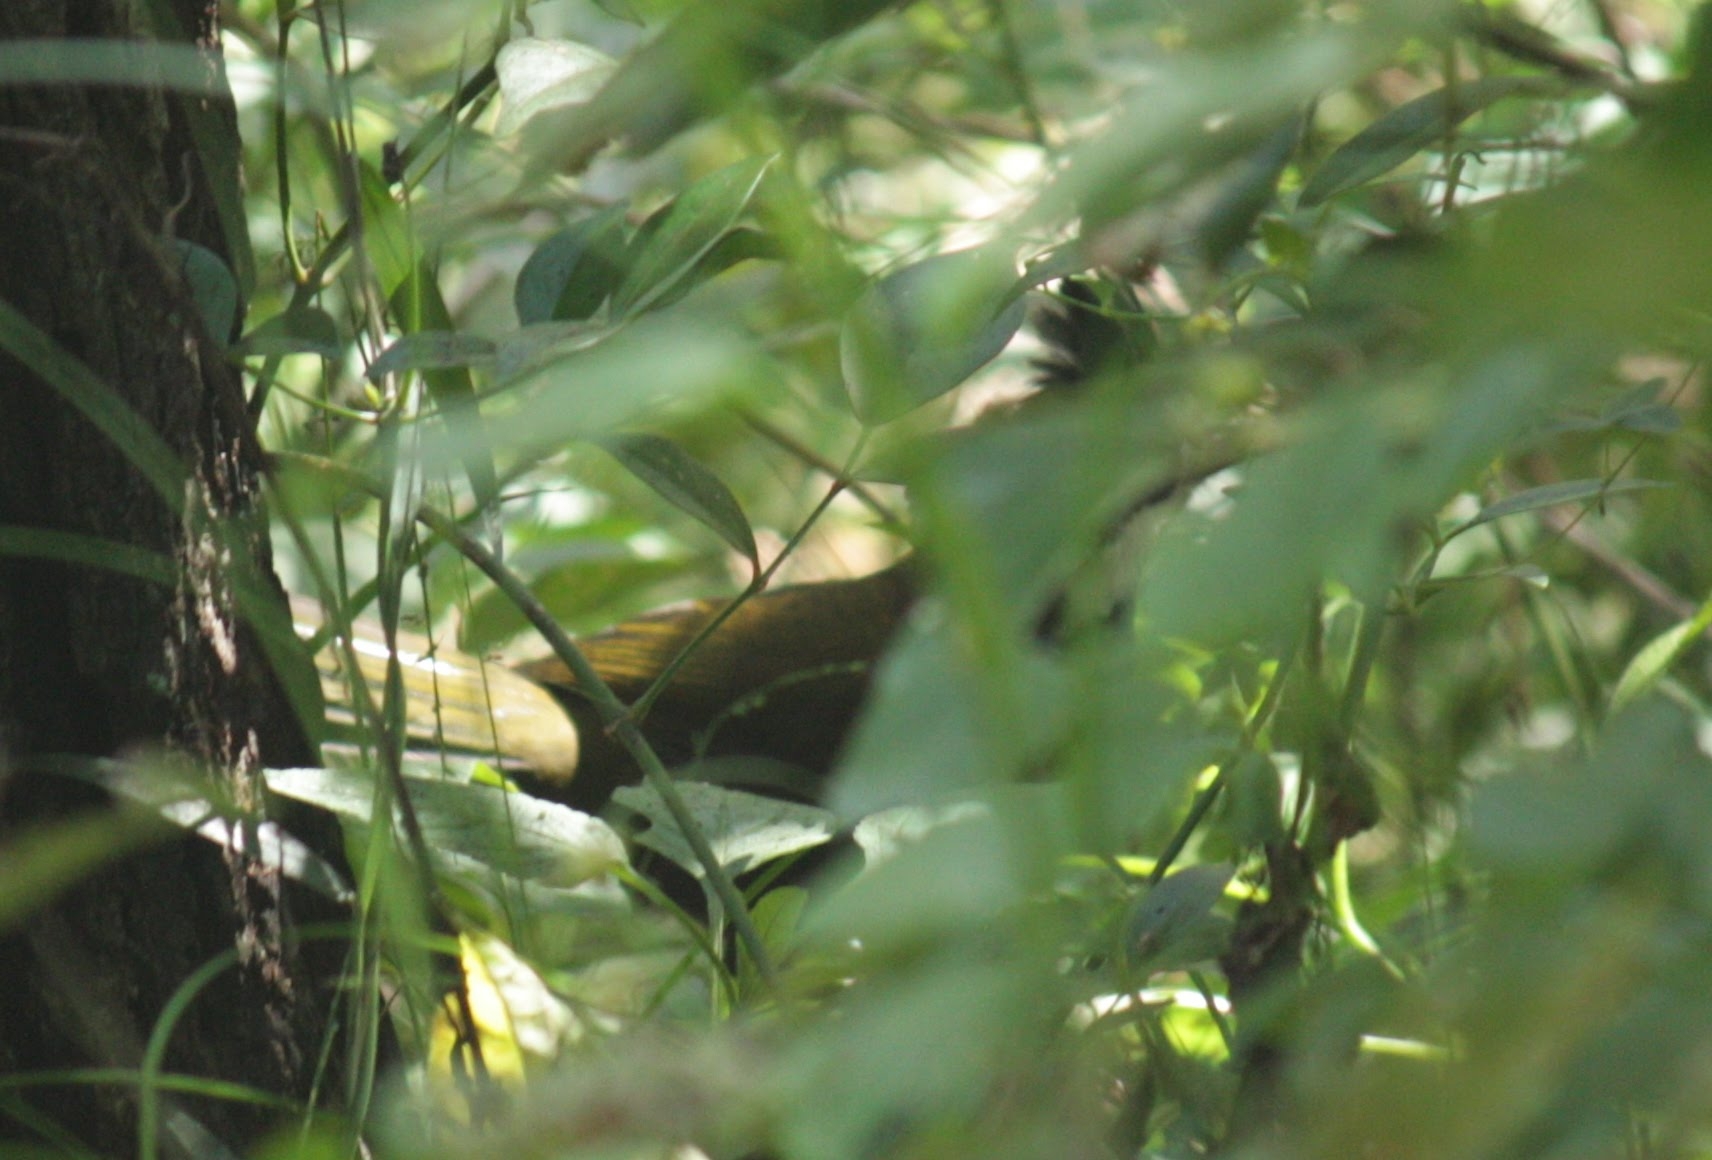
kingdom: Animalia
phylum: Chordata
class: Aves
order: Passeriformes
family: Psophodidae
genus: Psophodes
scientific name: Psophodes olivaceus
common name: Eastern whipbird
